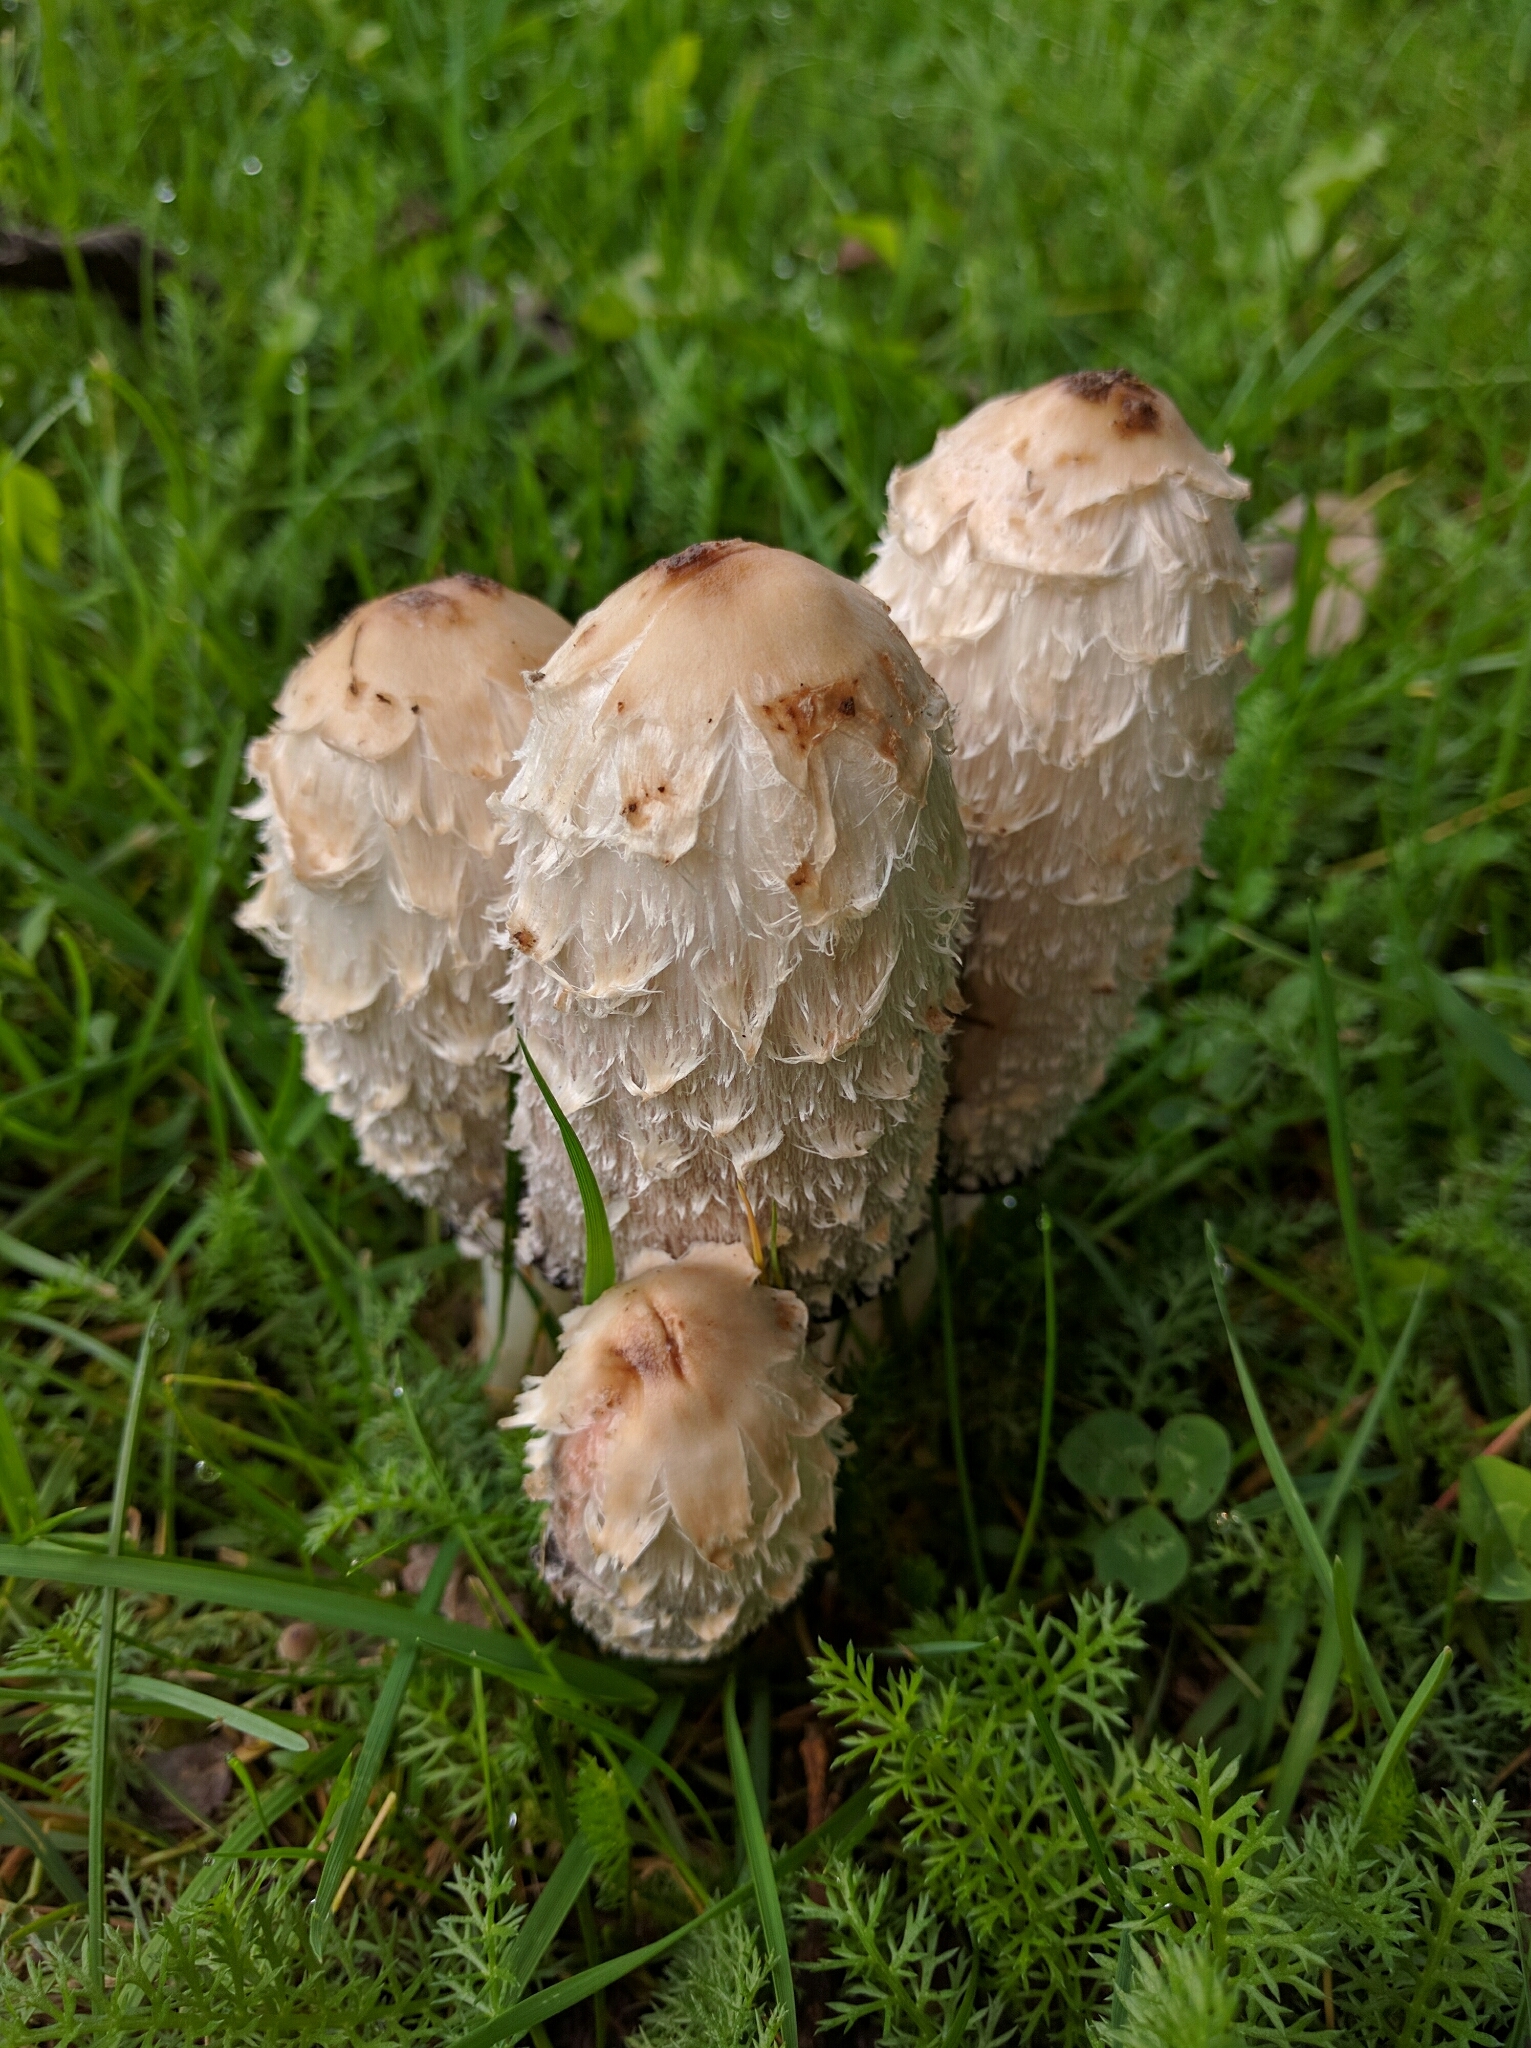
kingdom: Fungi
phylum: Basidiomycota
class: Agaricomycetes
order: Agaricales
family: Agaricaceae
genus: Coprinus
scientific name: Coprinus comatus
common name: Lawyer's wig
